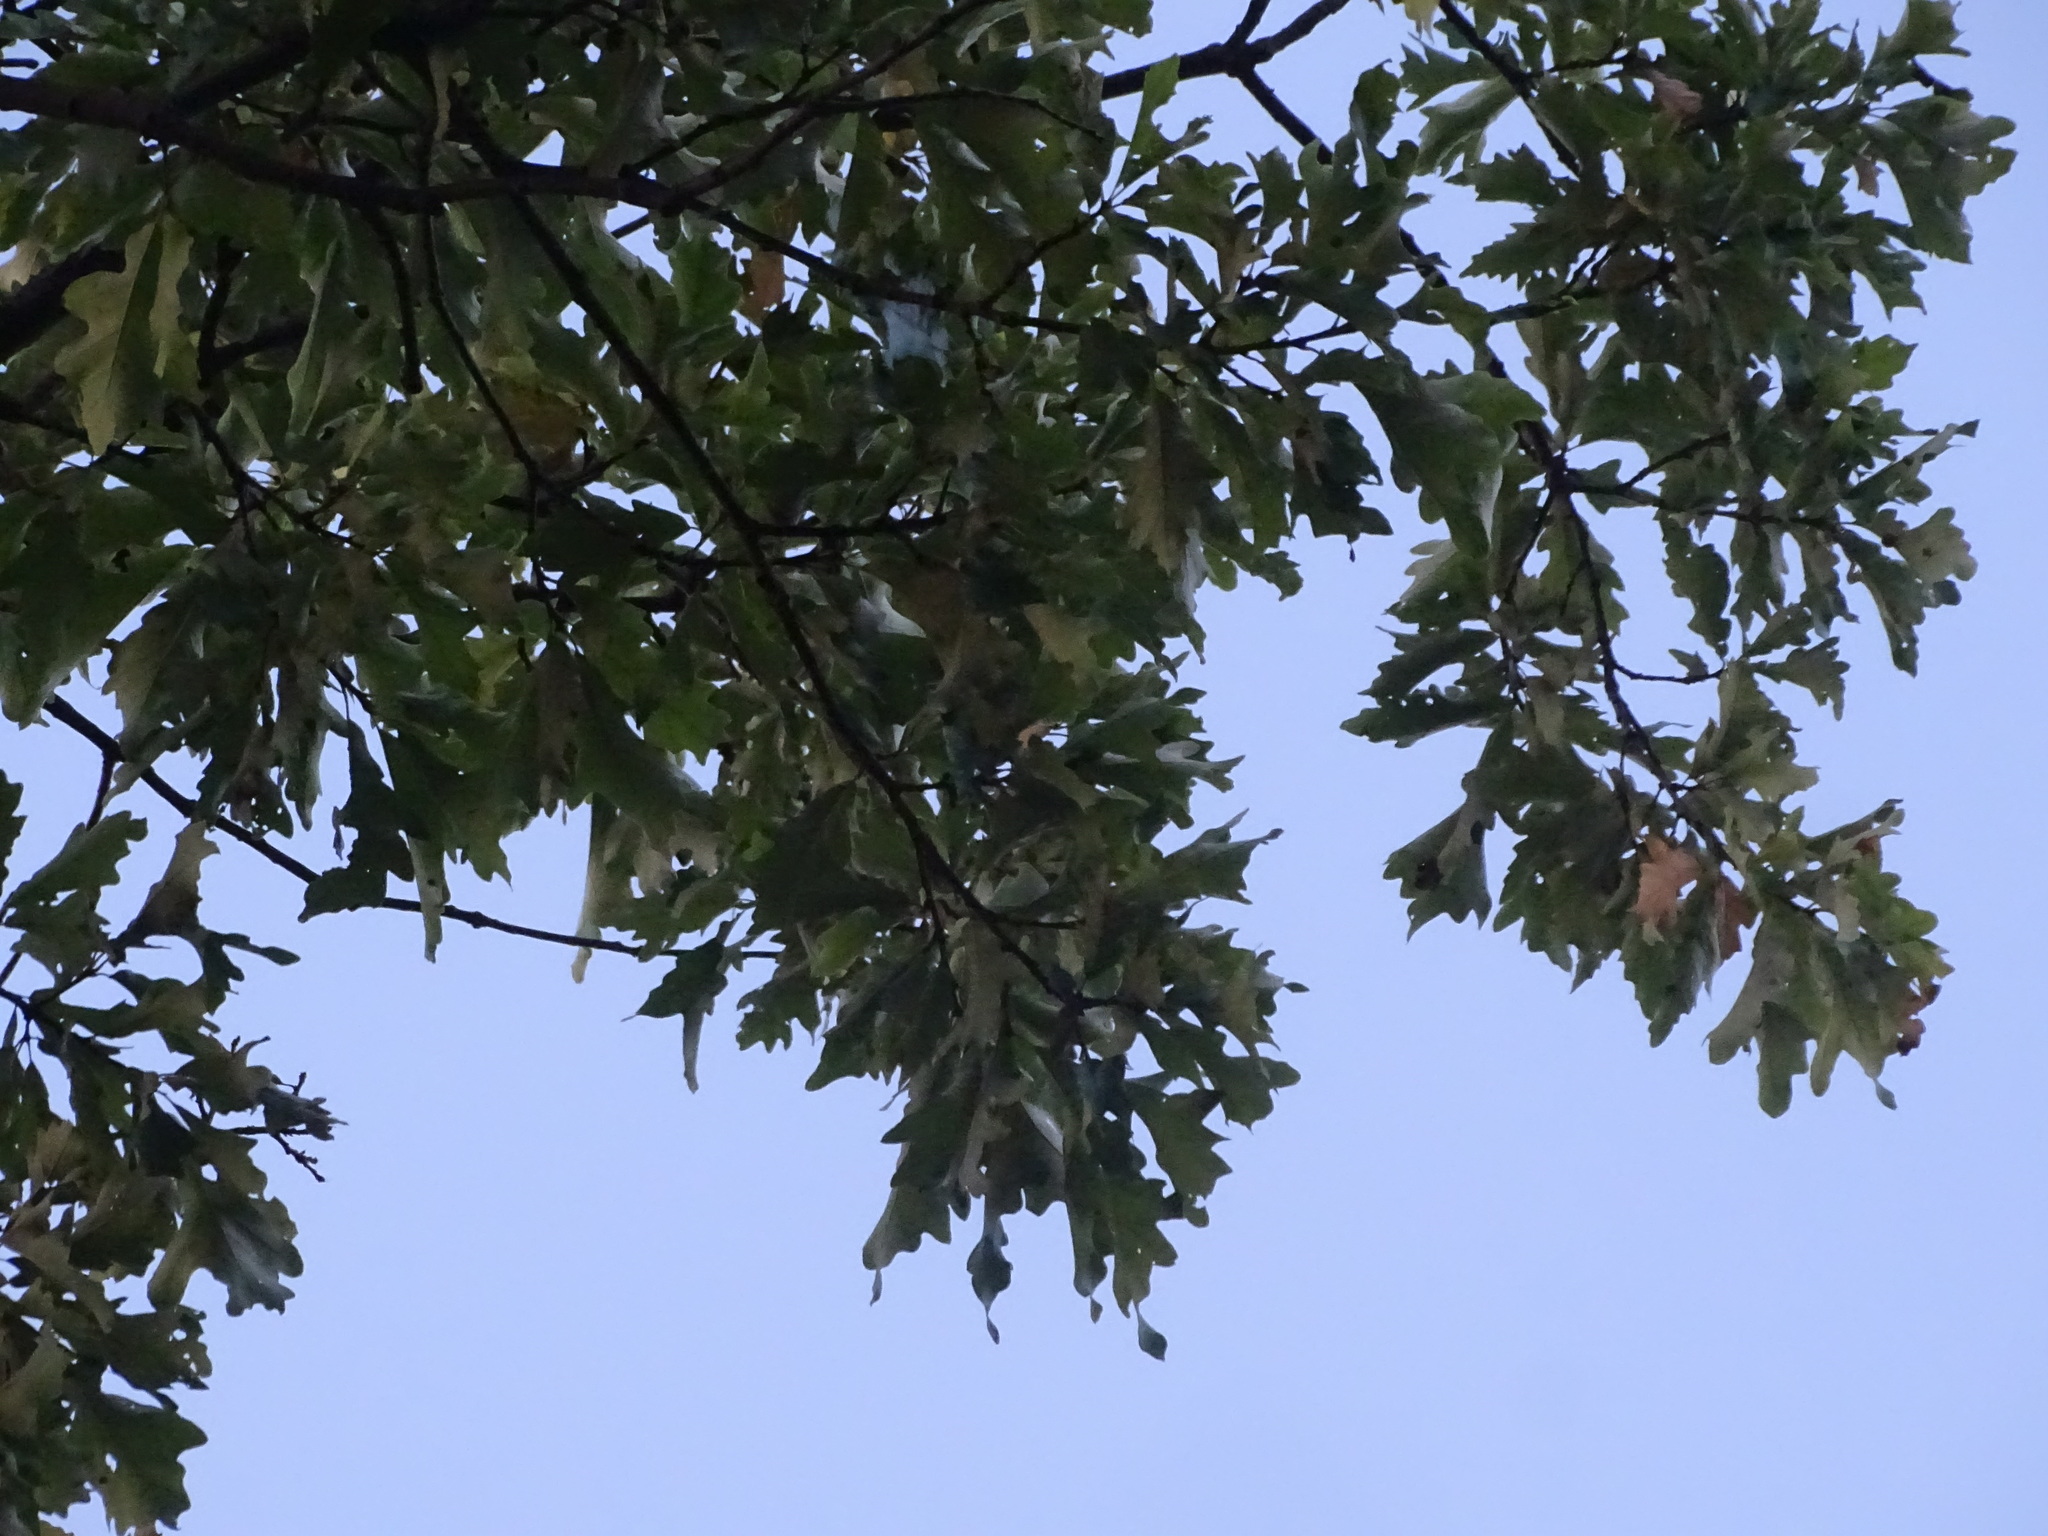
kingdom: Plantae
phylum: Tracheophyta
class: Magnoliopsida
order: Fagales
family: Fagaceae
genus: Quercus
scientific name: Quercus bicolor
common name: Swamp white oak
